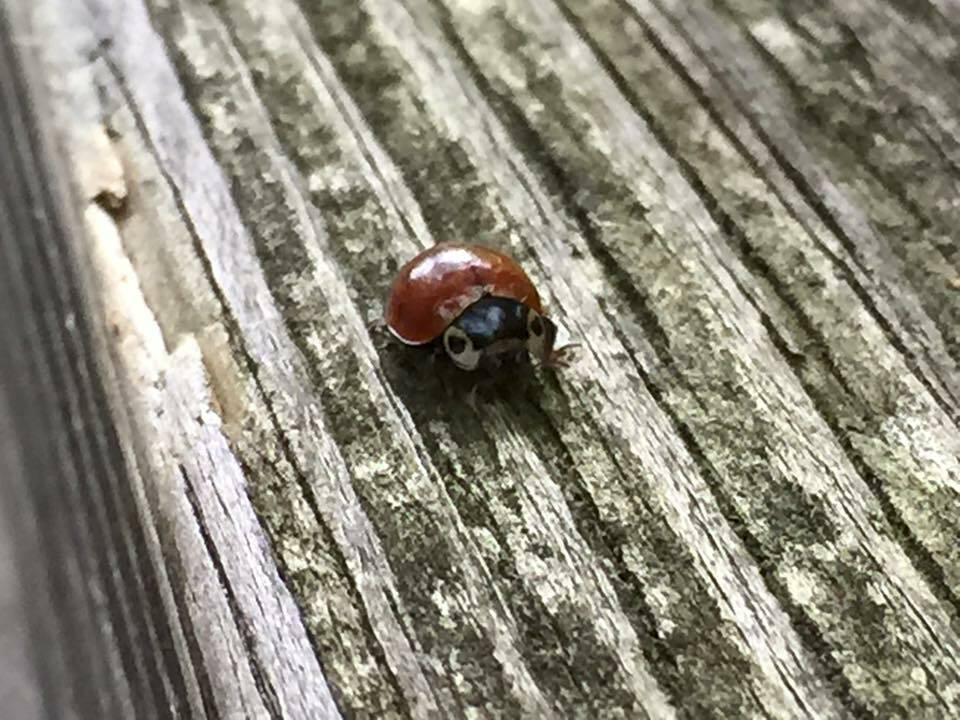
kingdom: Animalia
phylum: Arthropoda
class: Insecta
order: Coleoptera
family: Coccinellidae
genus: Myzia
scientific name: Myzia pullata
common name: Streaked lady beetle
